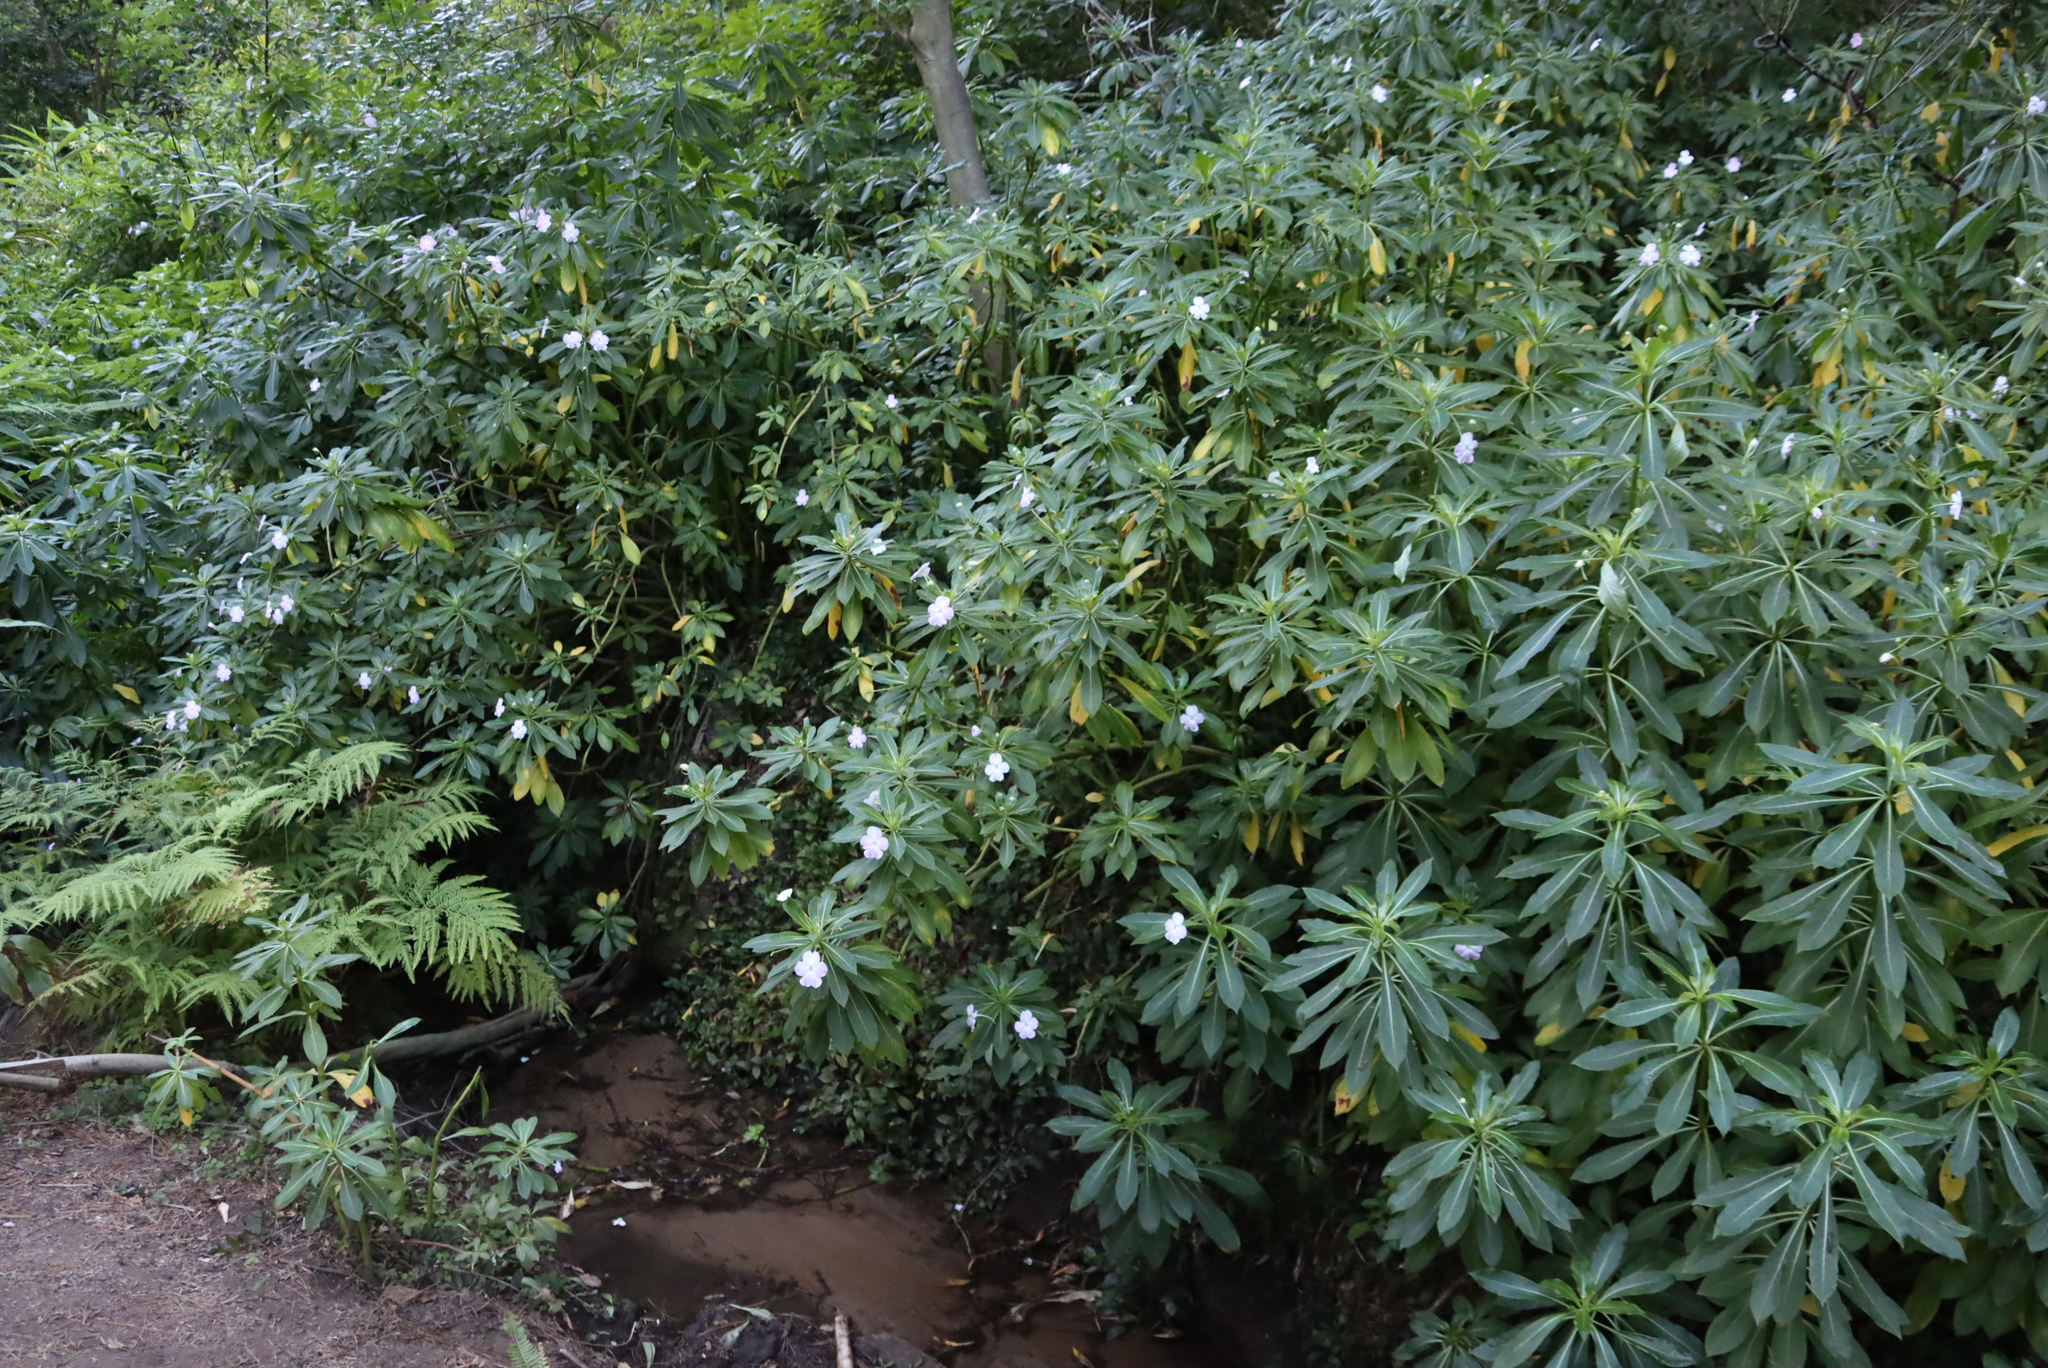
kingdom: Plantae
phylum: Tracheophyta
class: Magnoliopsida
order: Ericales
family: Balsaminaceae
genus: Impatiens
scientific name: Impatiens sodenii
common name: Oliver's touch-me-not
